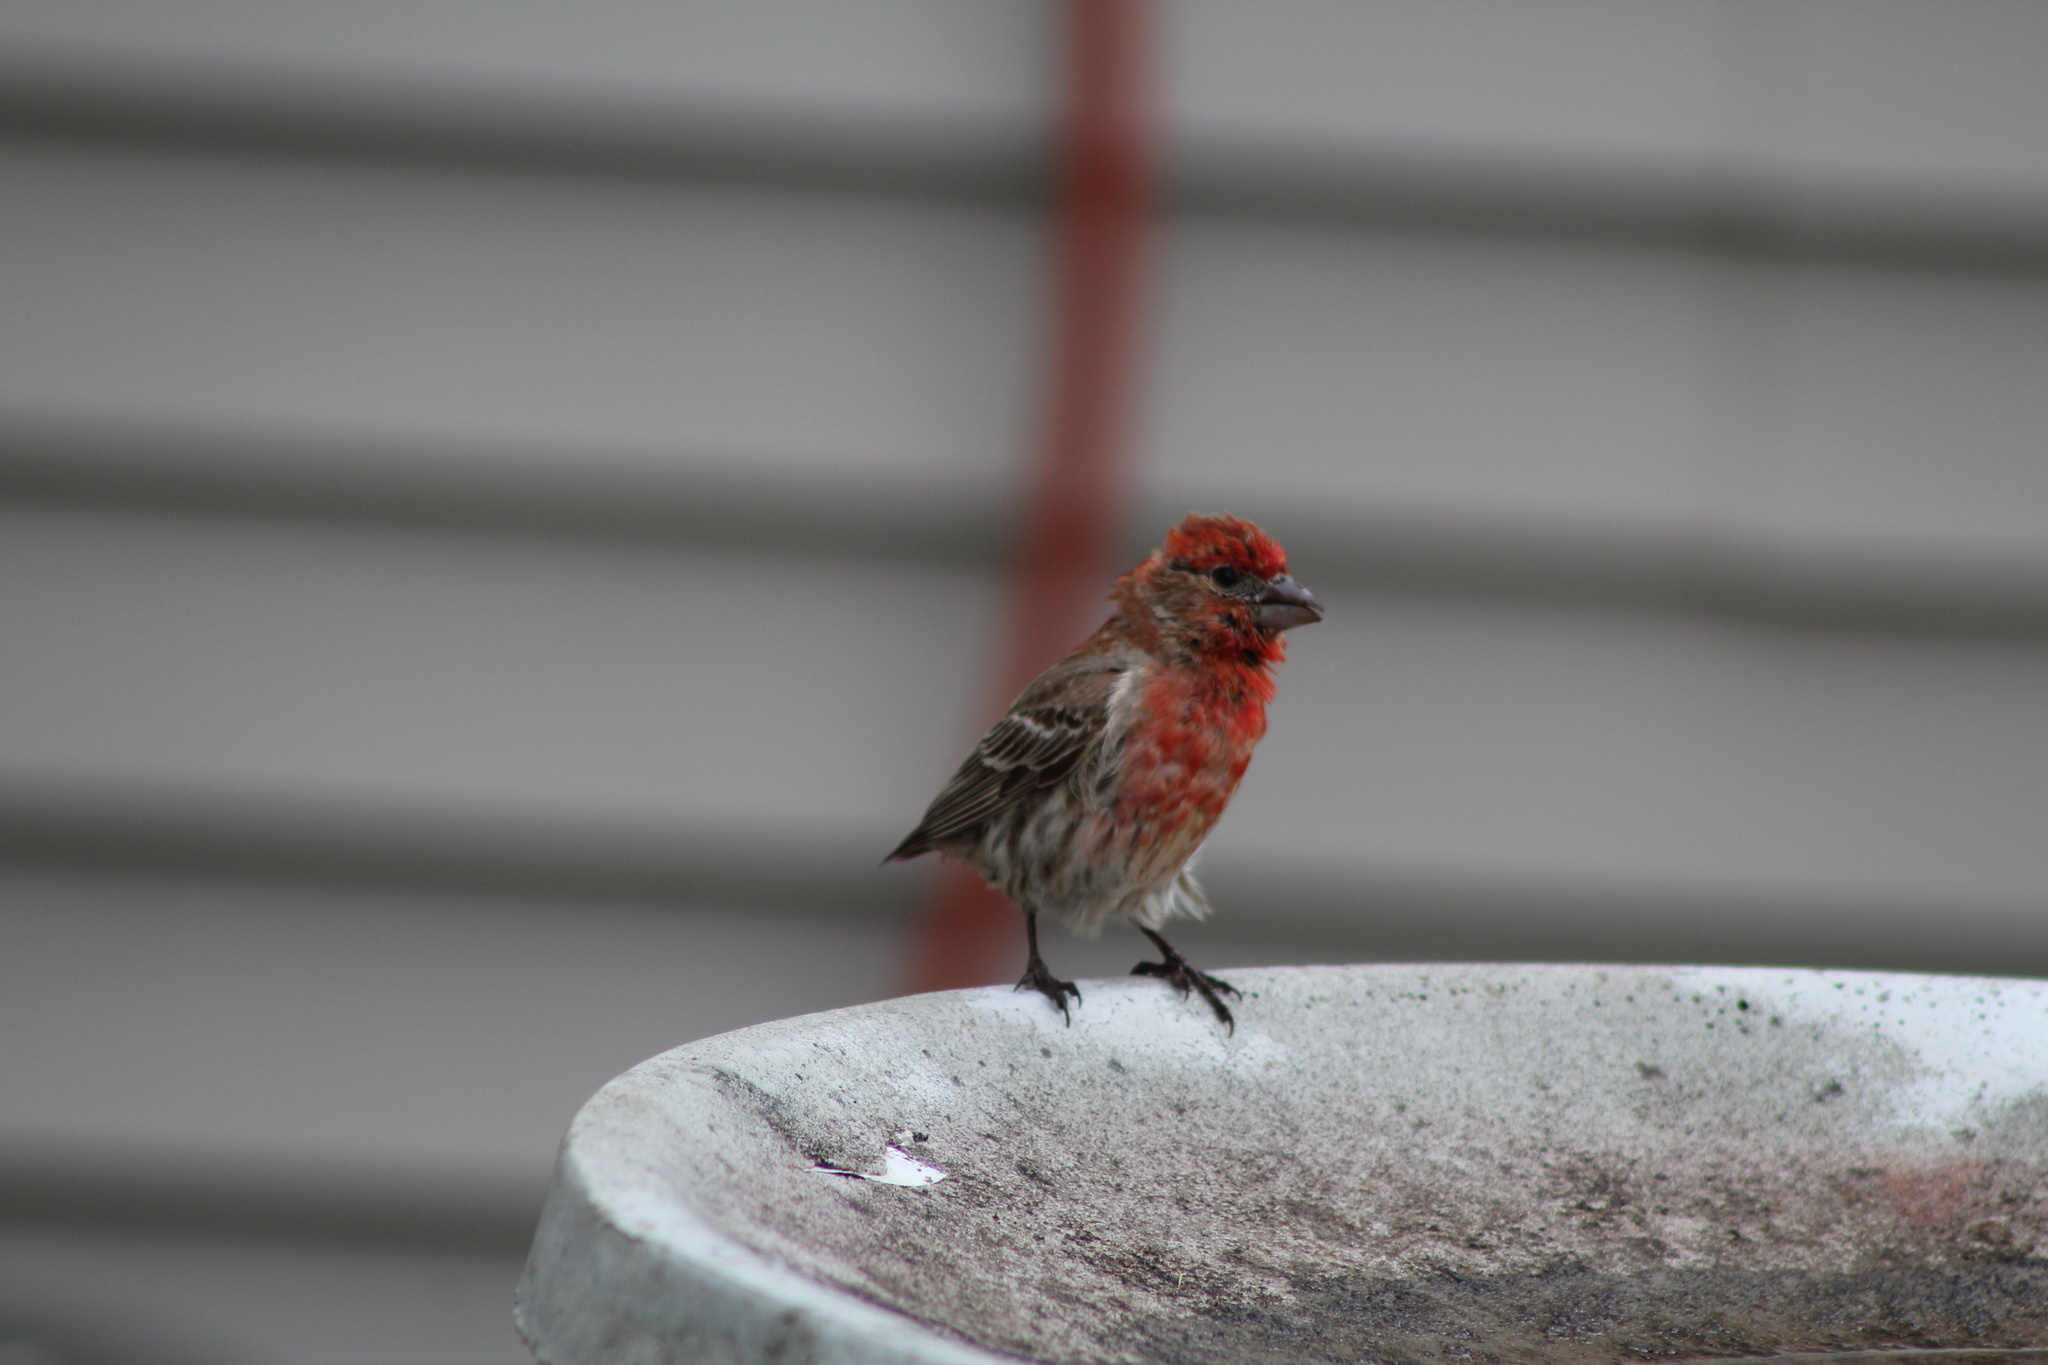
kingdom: Animalia
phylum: Chordata
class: Aves
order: Passeriformes
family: Fringillidae
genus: Haemorhous
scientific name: Haemorhous mexicanus
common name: House finch
